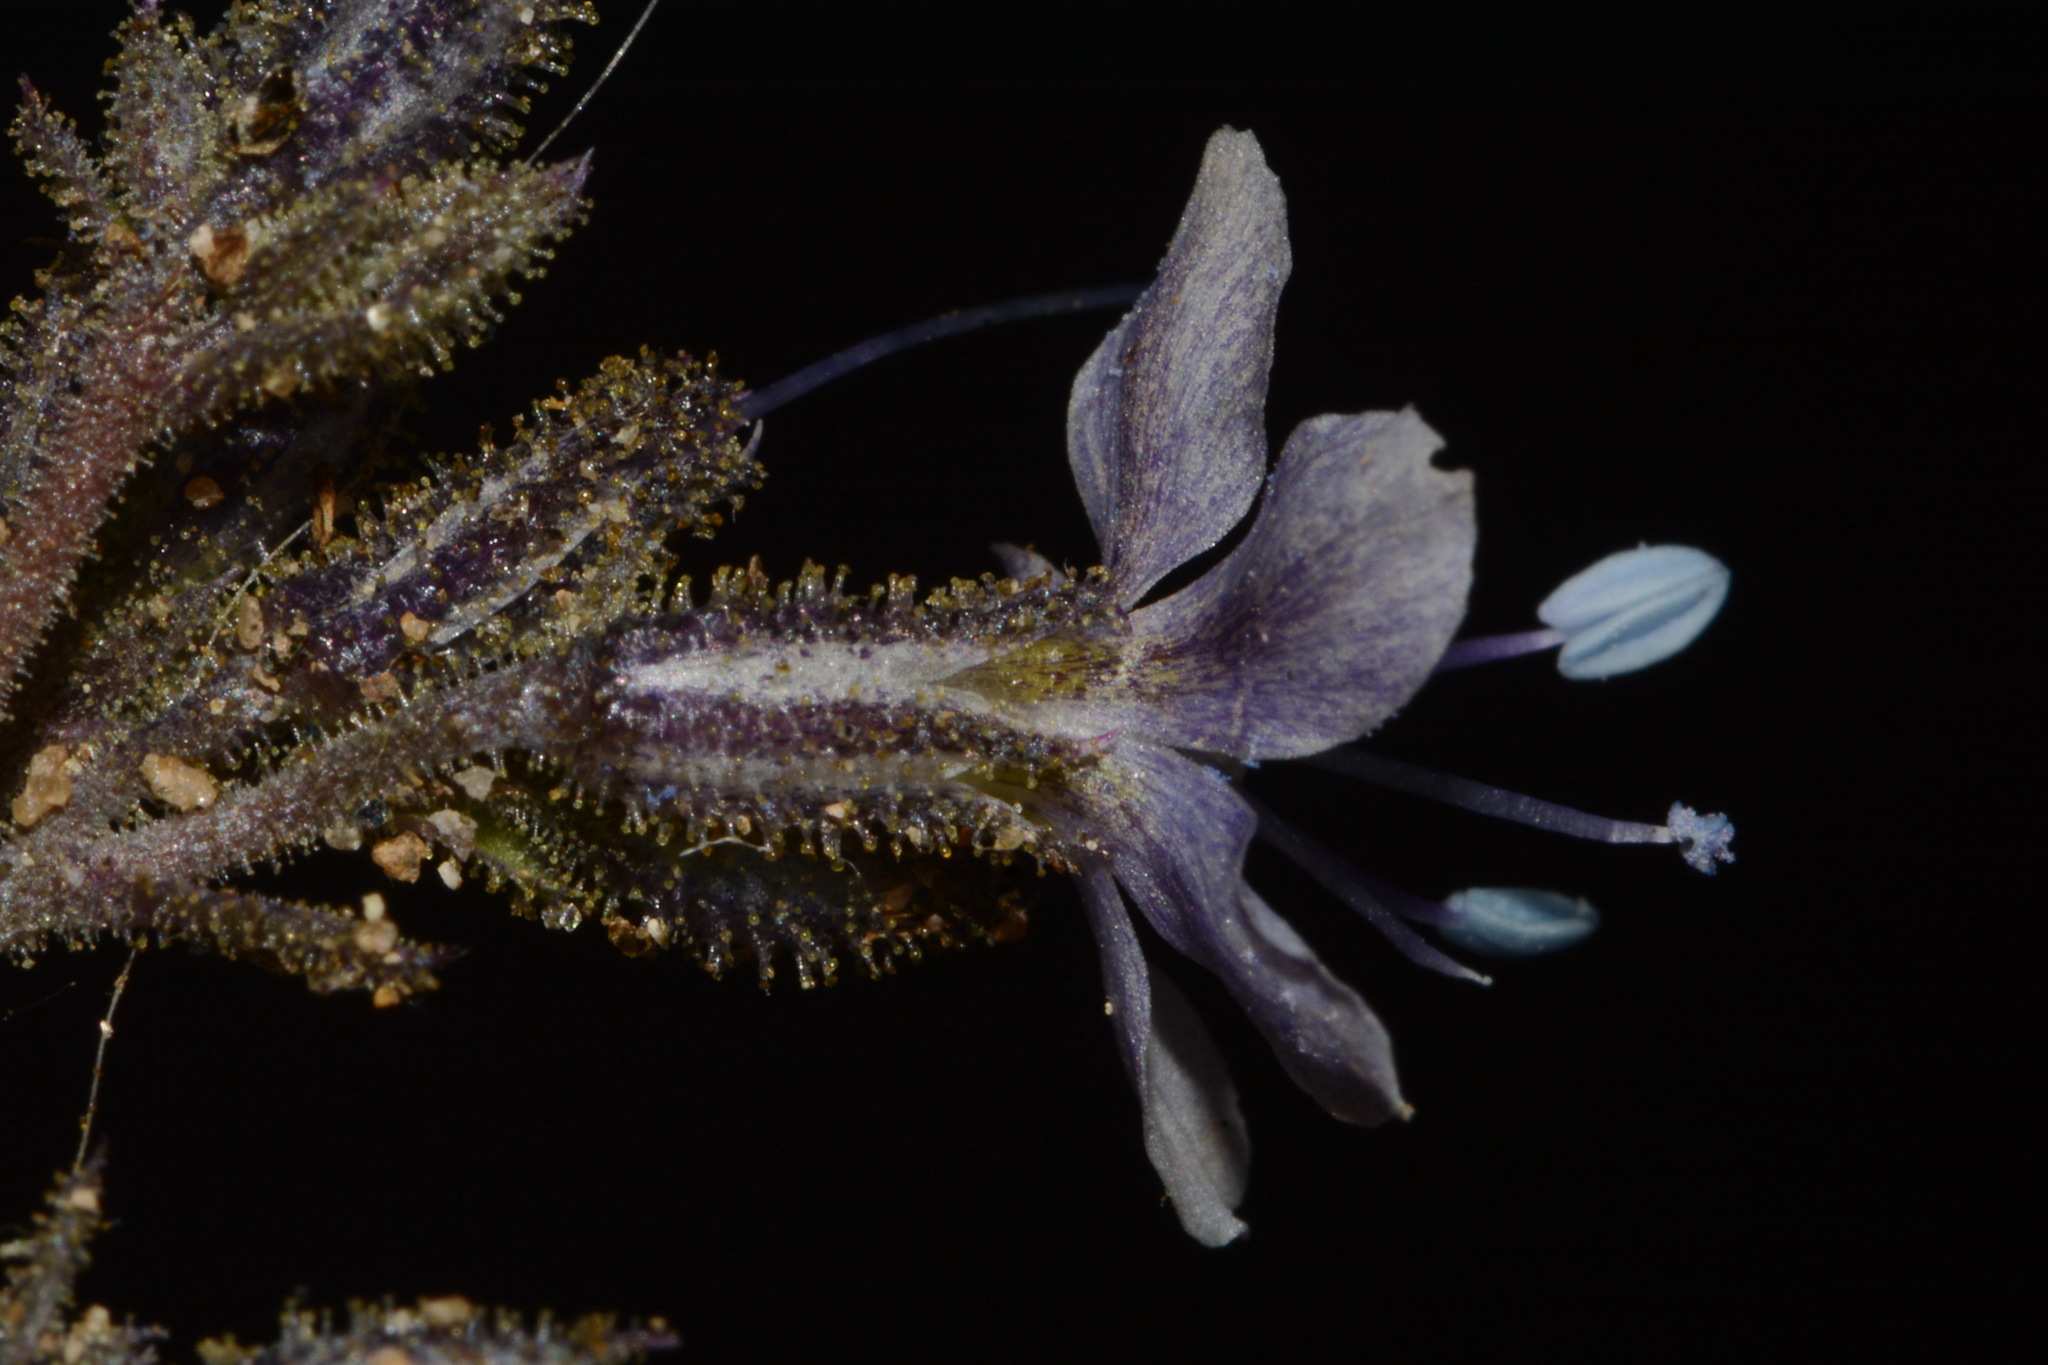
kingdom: Plantae
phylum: Tracheophyta
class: Magnoliopsida
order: Ericales
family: Polemoniaceae
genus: Aliciella
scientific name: Aliciella pinnatifida
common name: Sticky gilia
